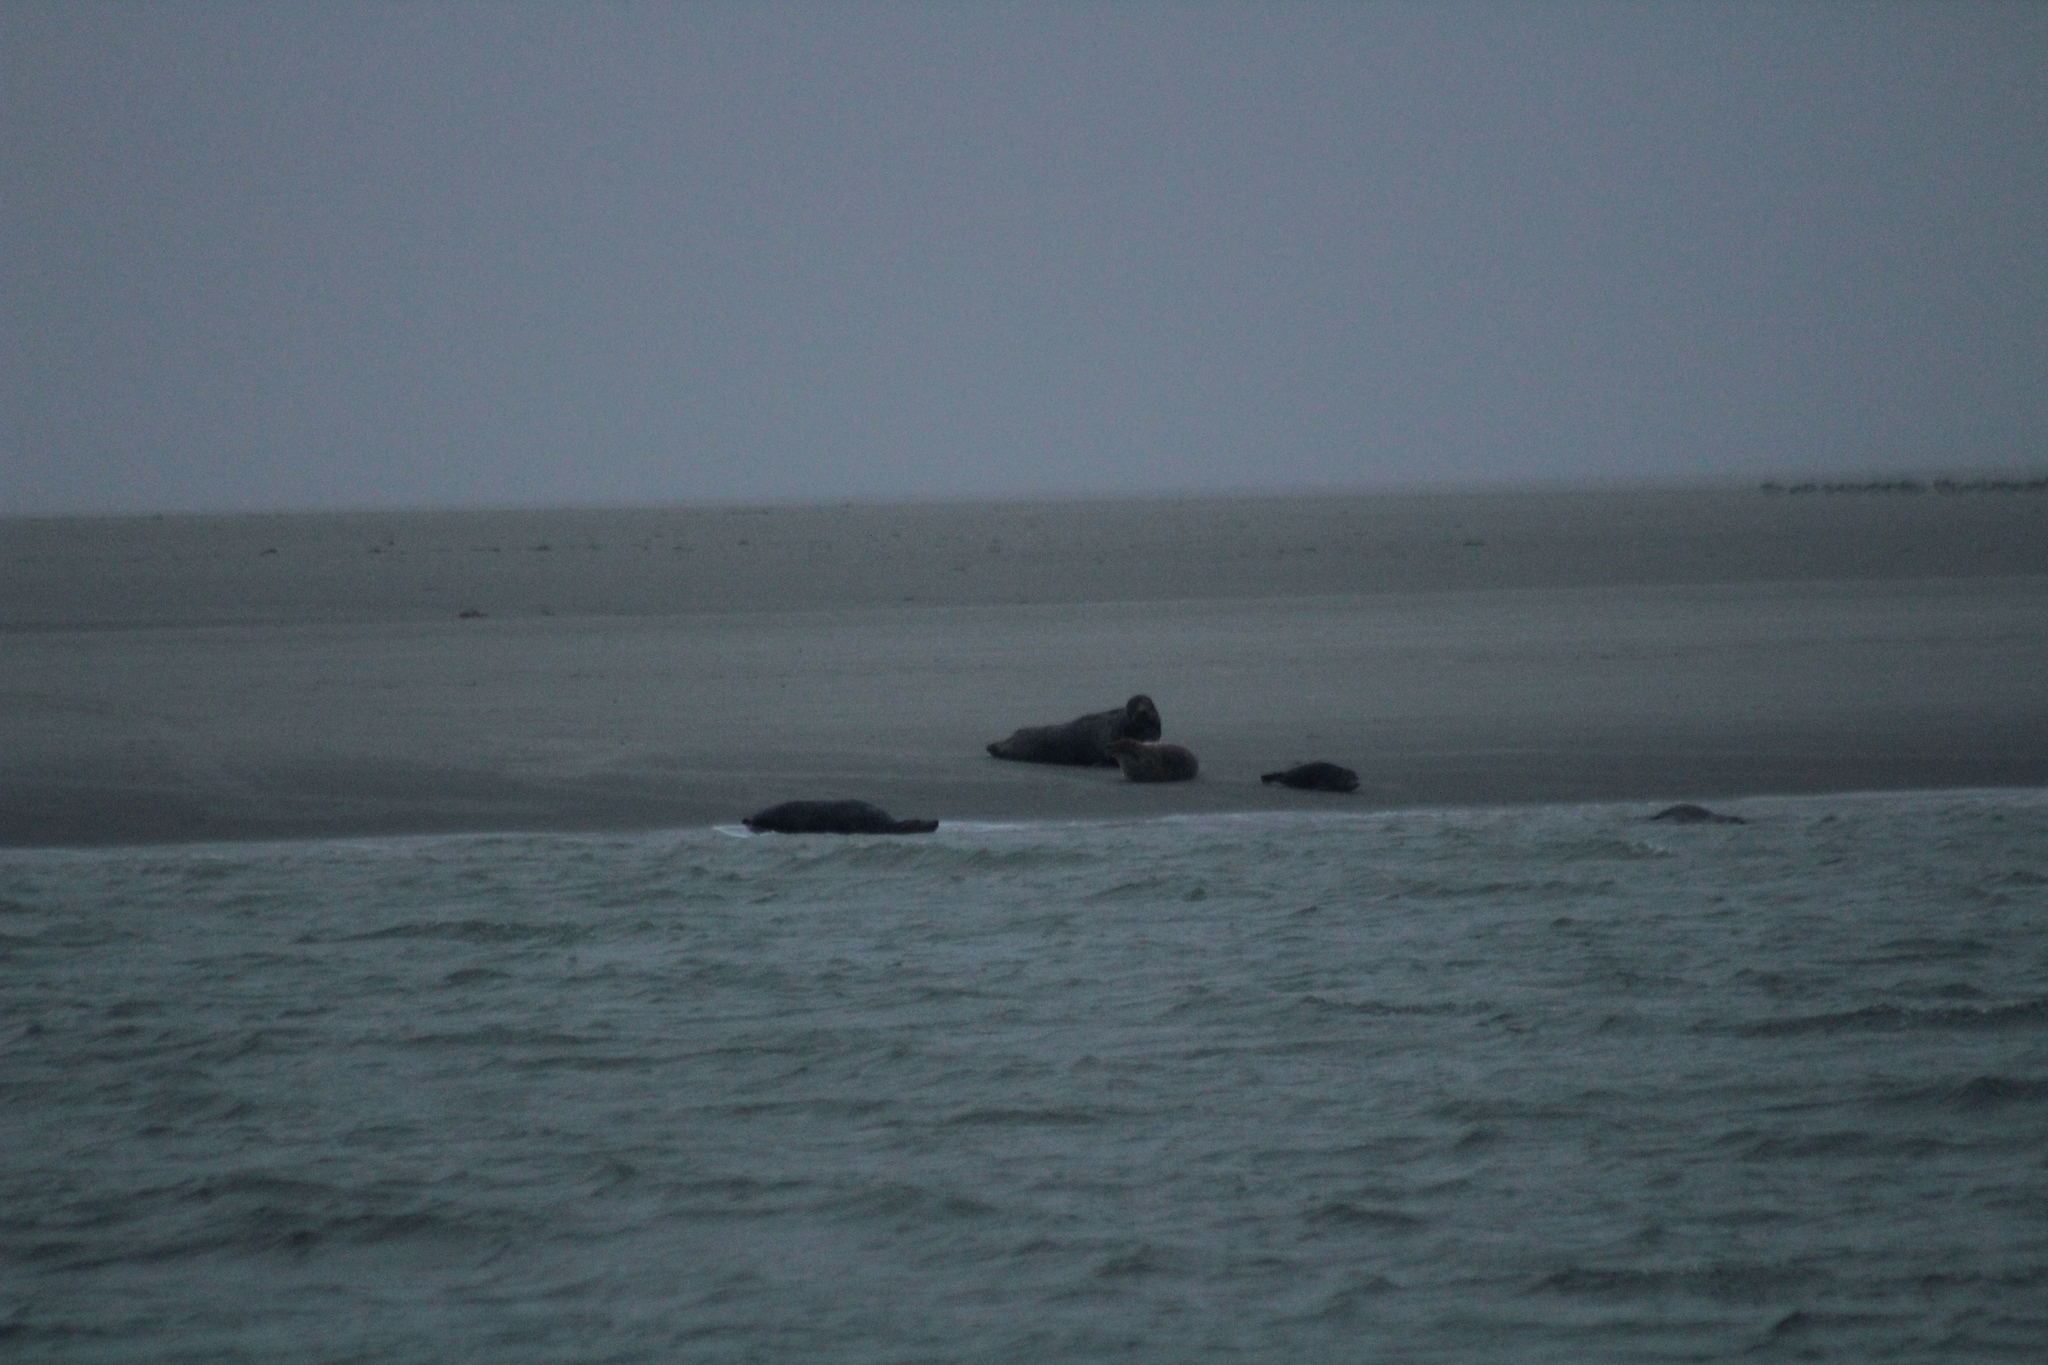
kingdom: Animalia
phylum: Chordata
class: Mammalia
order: Carnivora
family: Phocidae
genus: Halichoerus
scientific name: Halichoerus grypus
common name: Grey seal
